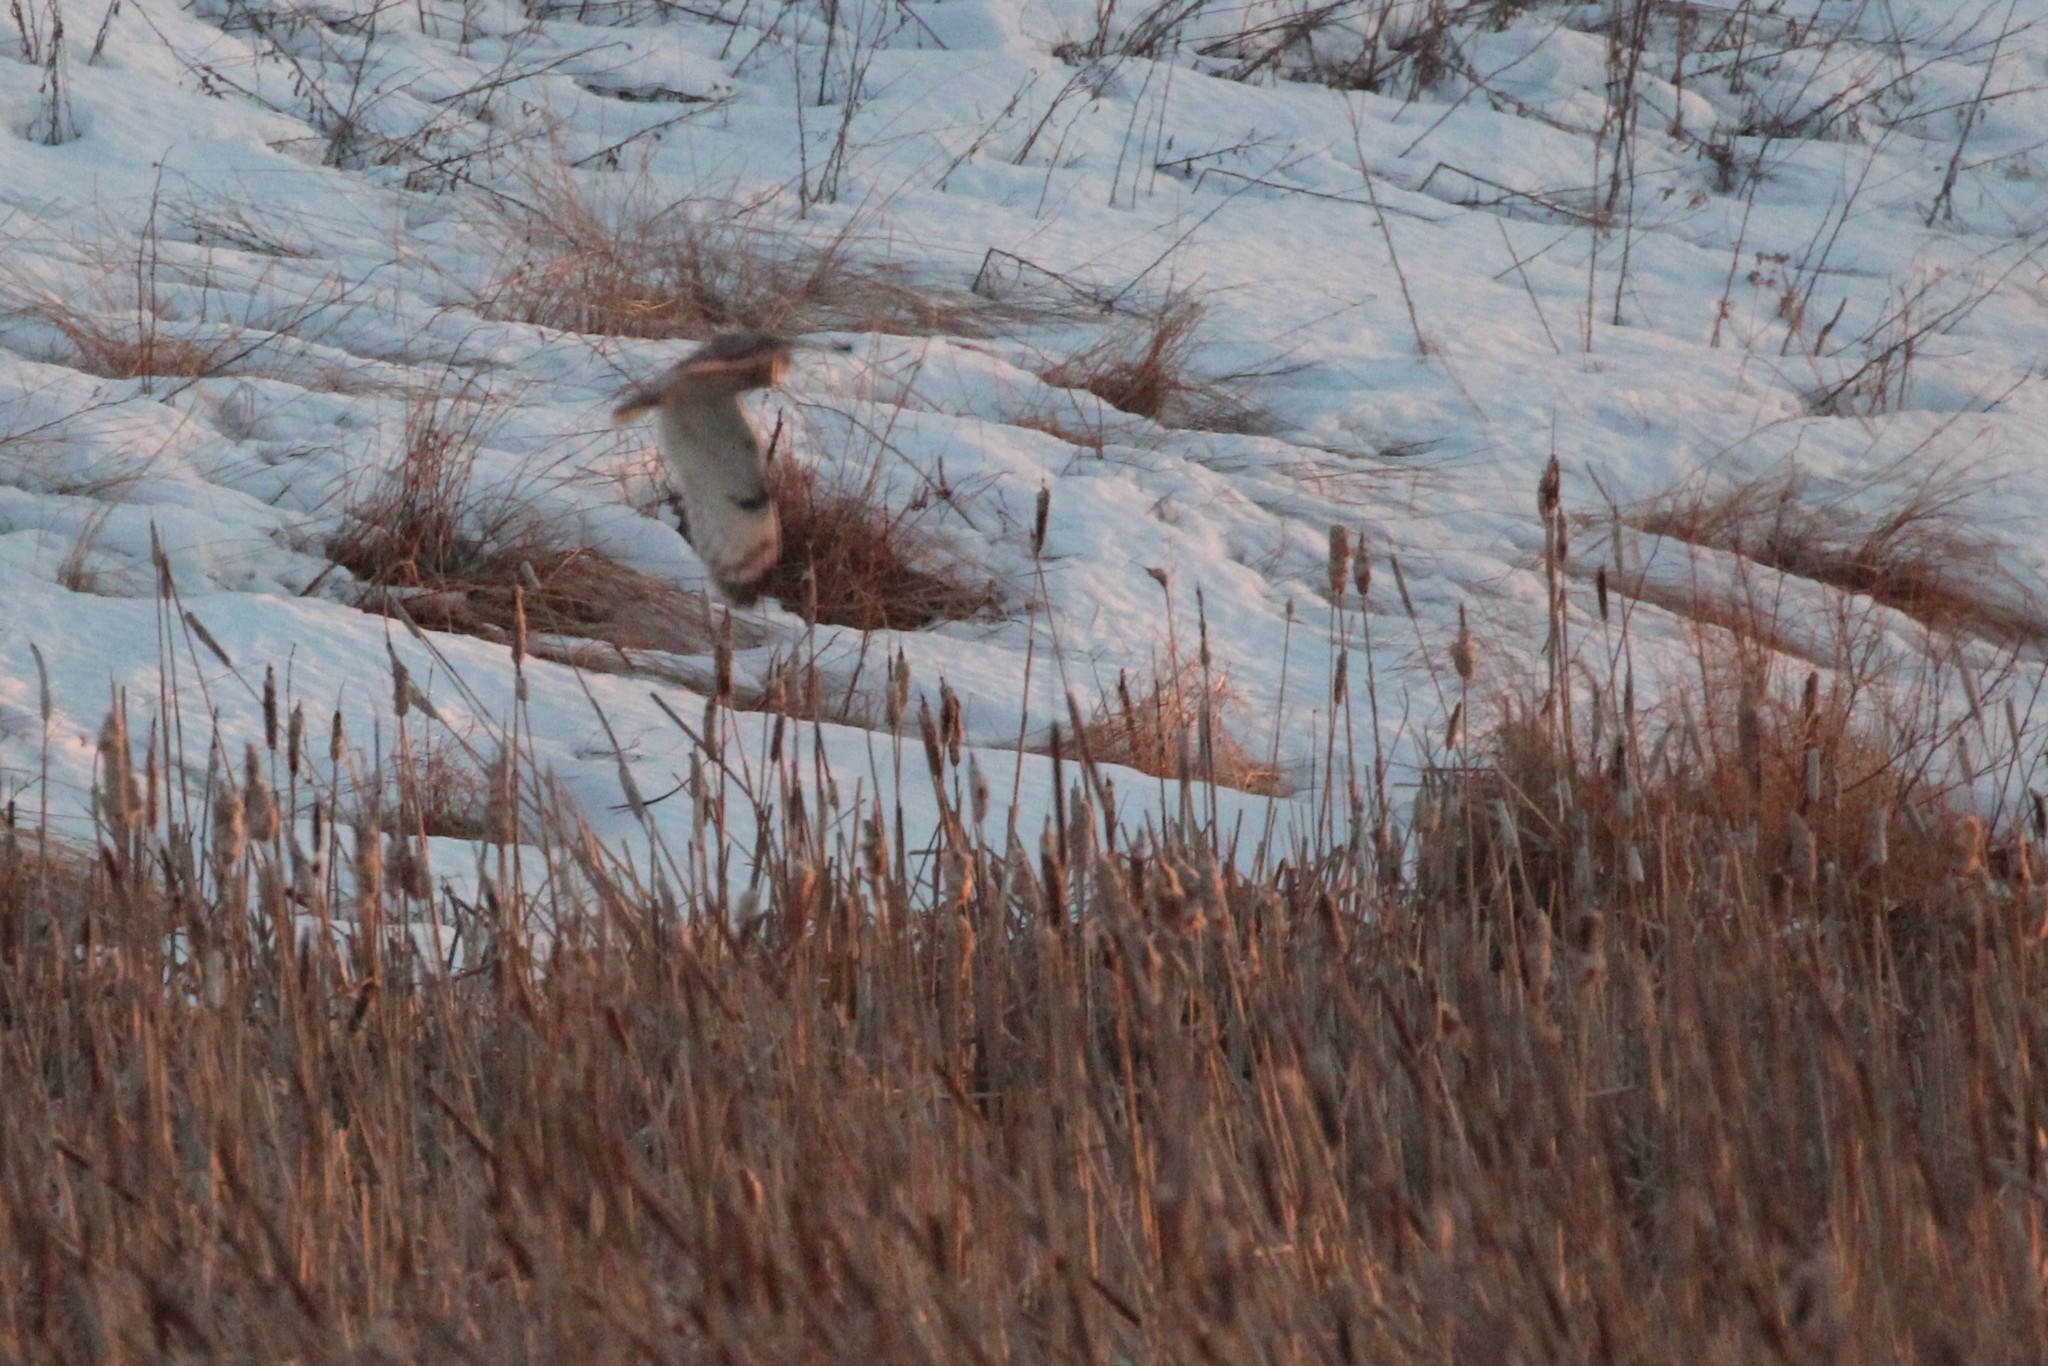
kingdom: Animalia
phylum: Chordata
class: Aves
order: Strigiformes
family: Strigidae
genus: Asio
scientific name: Asio flammeus
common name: Short-eared owl
